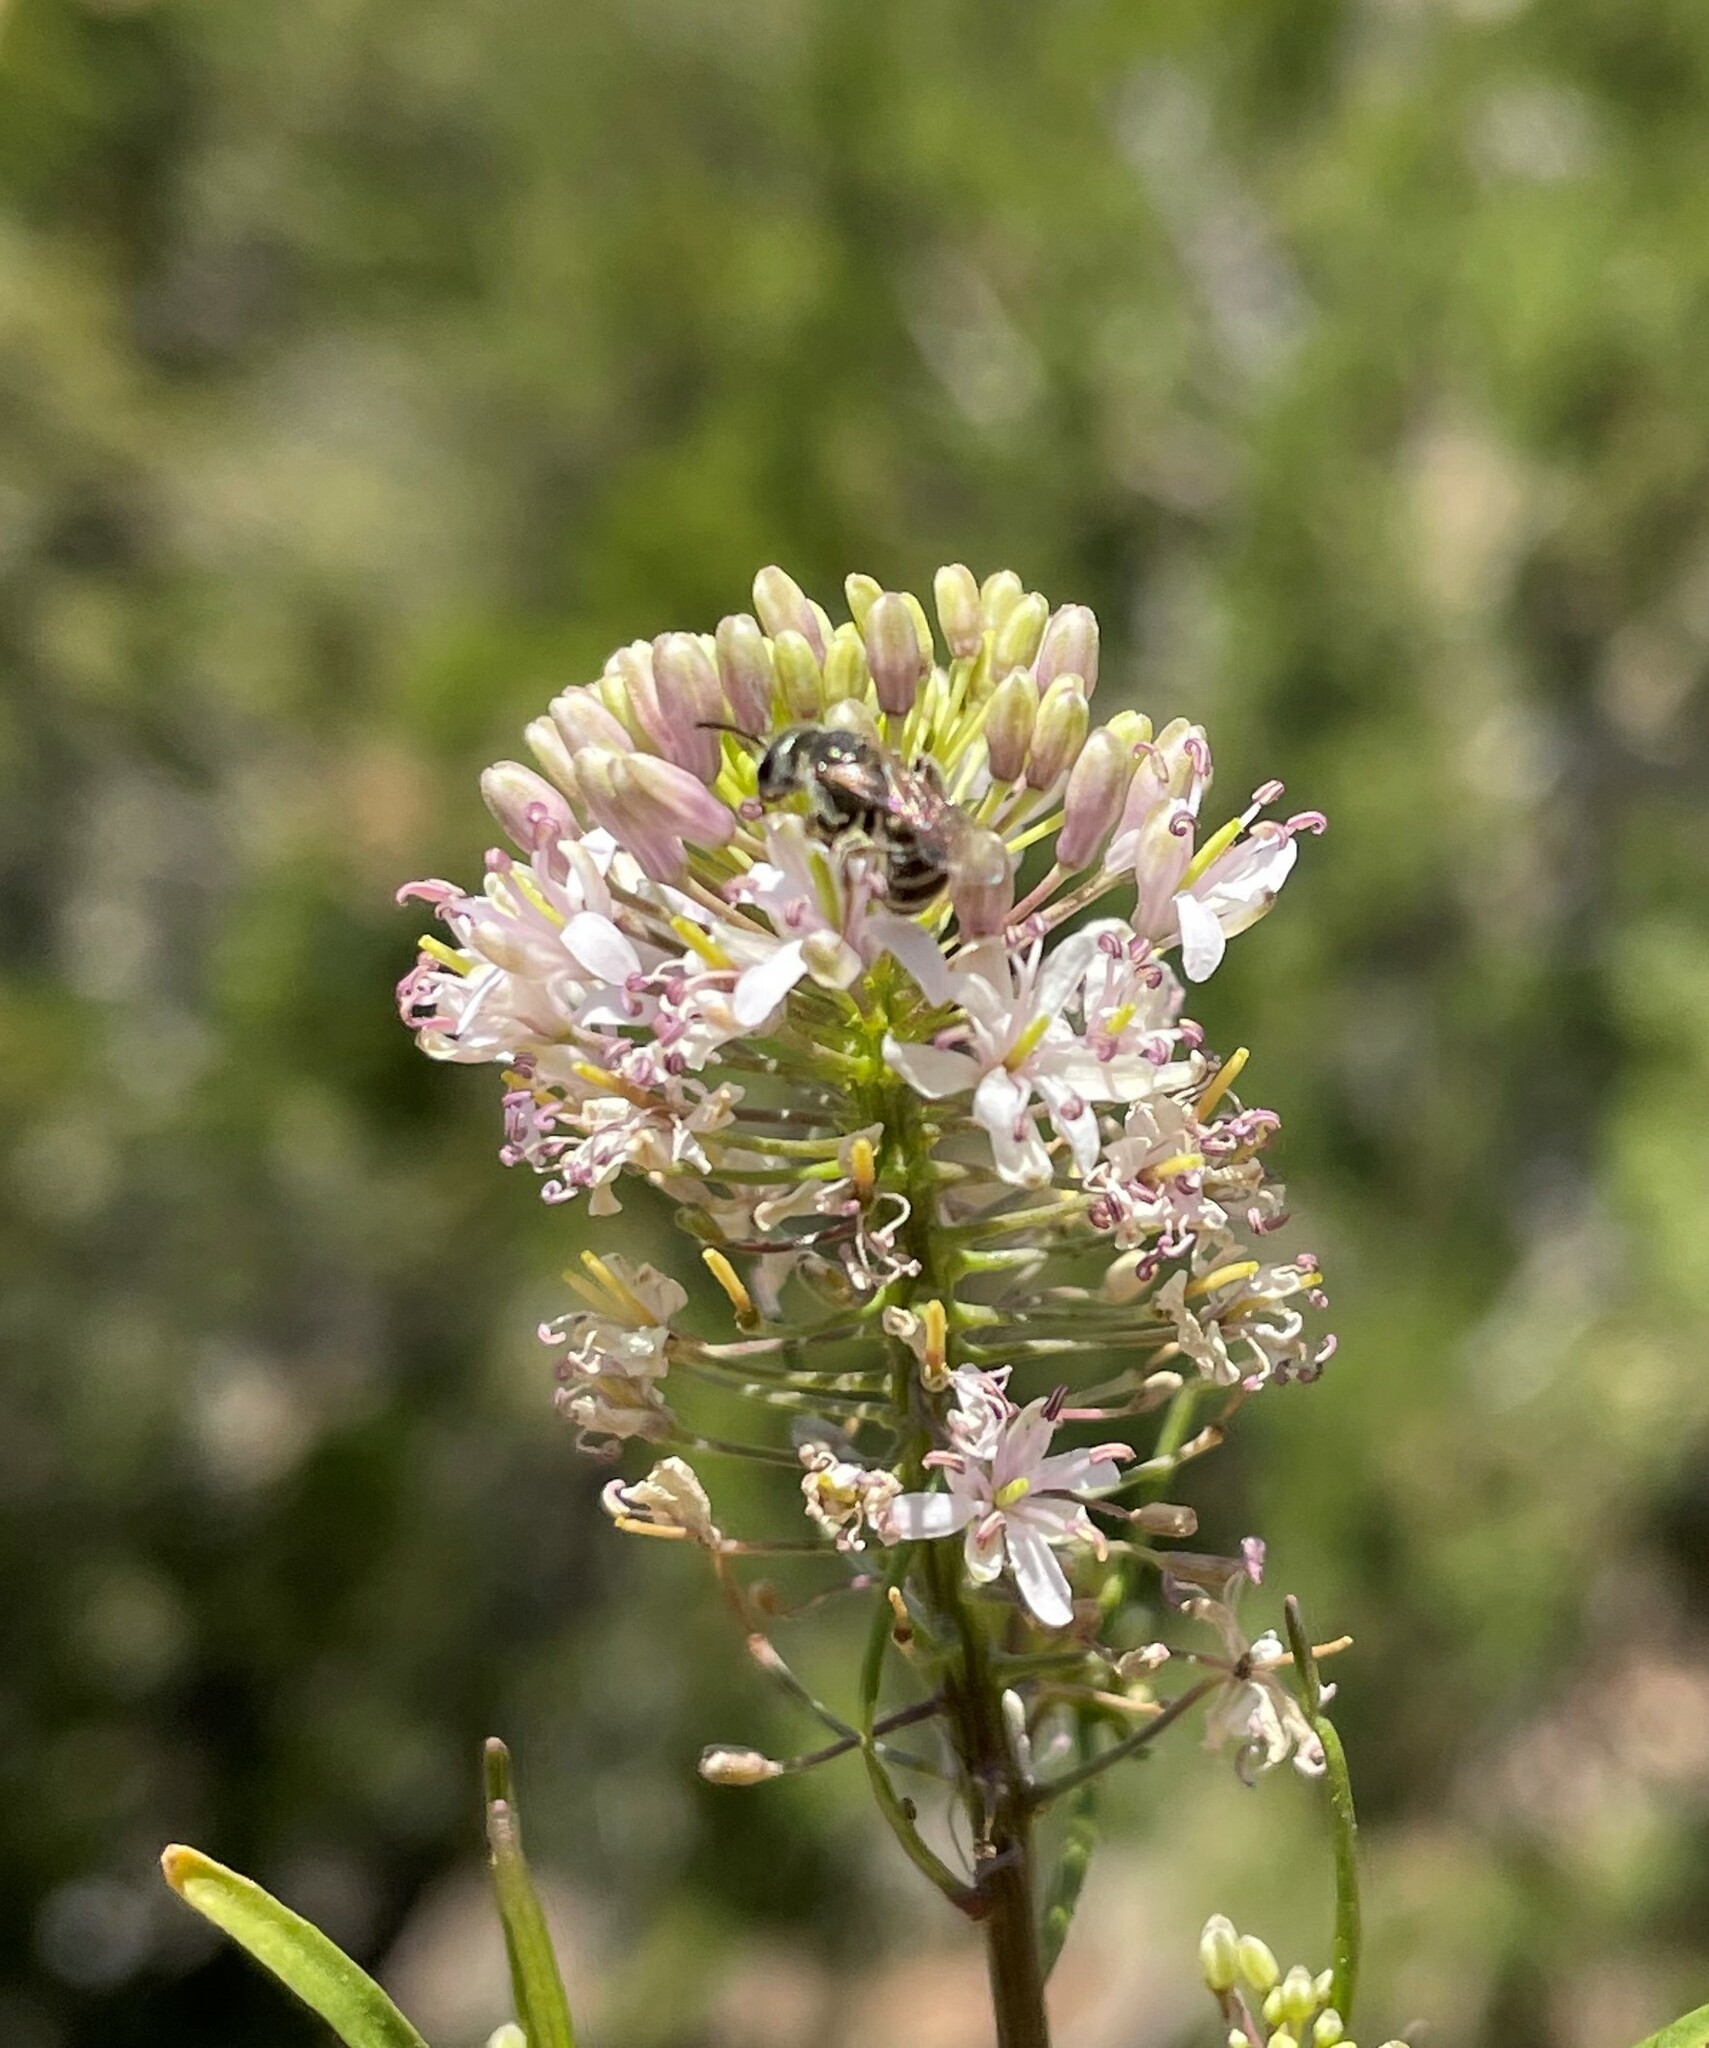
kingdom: Animalia
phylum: Arthropoda
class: Insecta
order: Hymenoptera
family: Halictidae
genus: Halictus
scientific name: Halictus tripartitus
